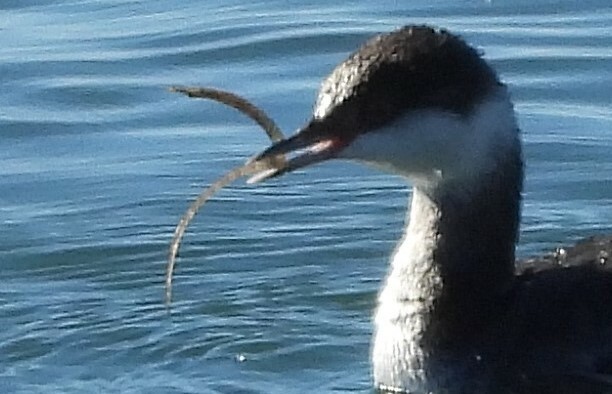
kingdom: Animalia
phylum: Chordata
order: Syngnathiformes
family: Syngnathidae
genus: Syngnathus
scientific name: Syngnathus californiensis
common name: Great pipefish
